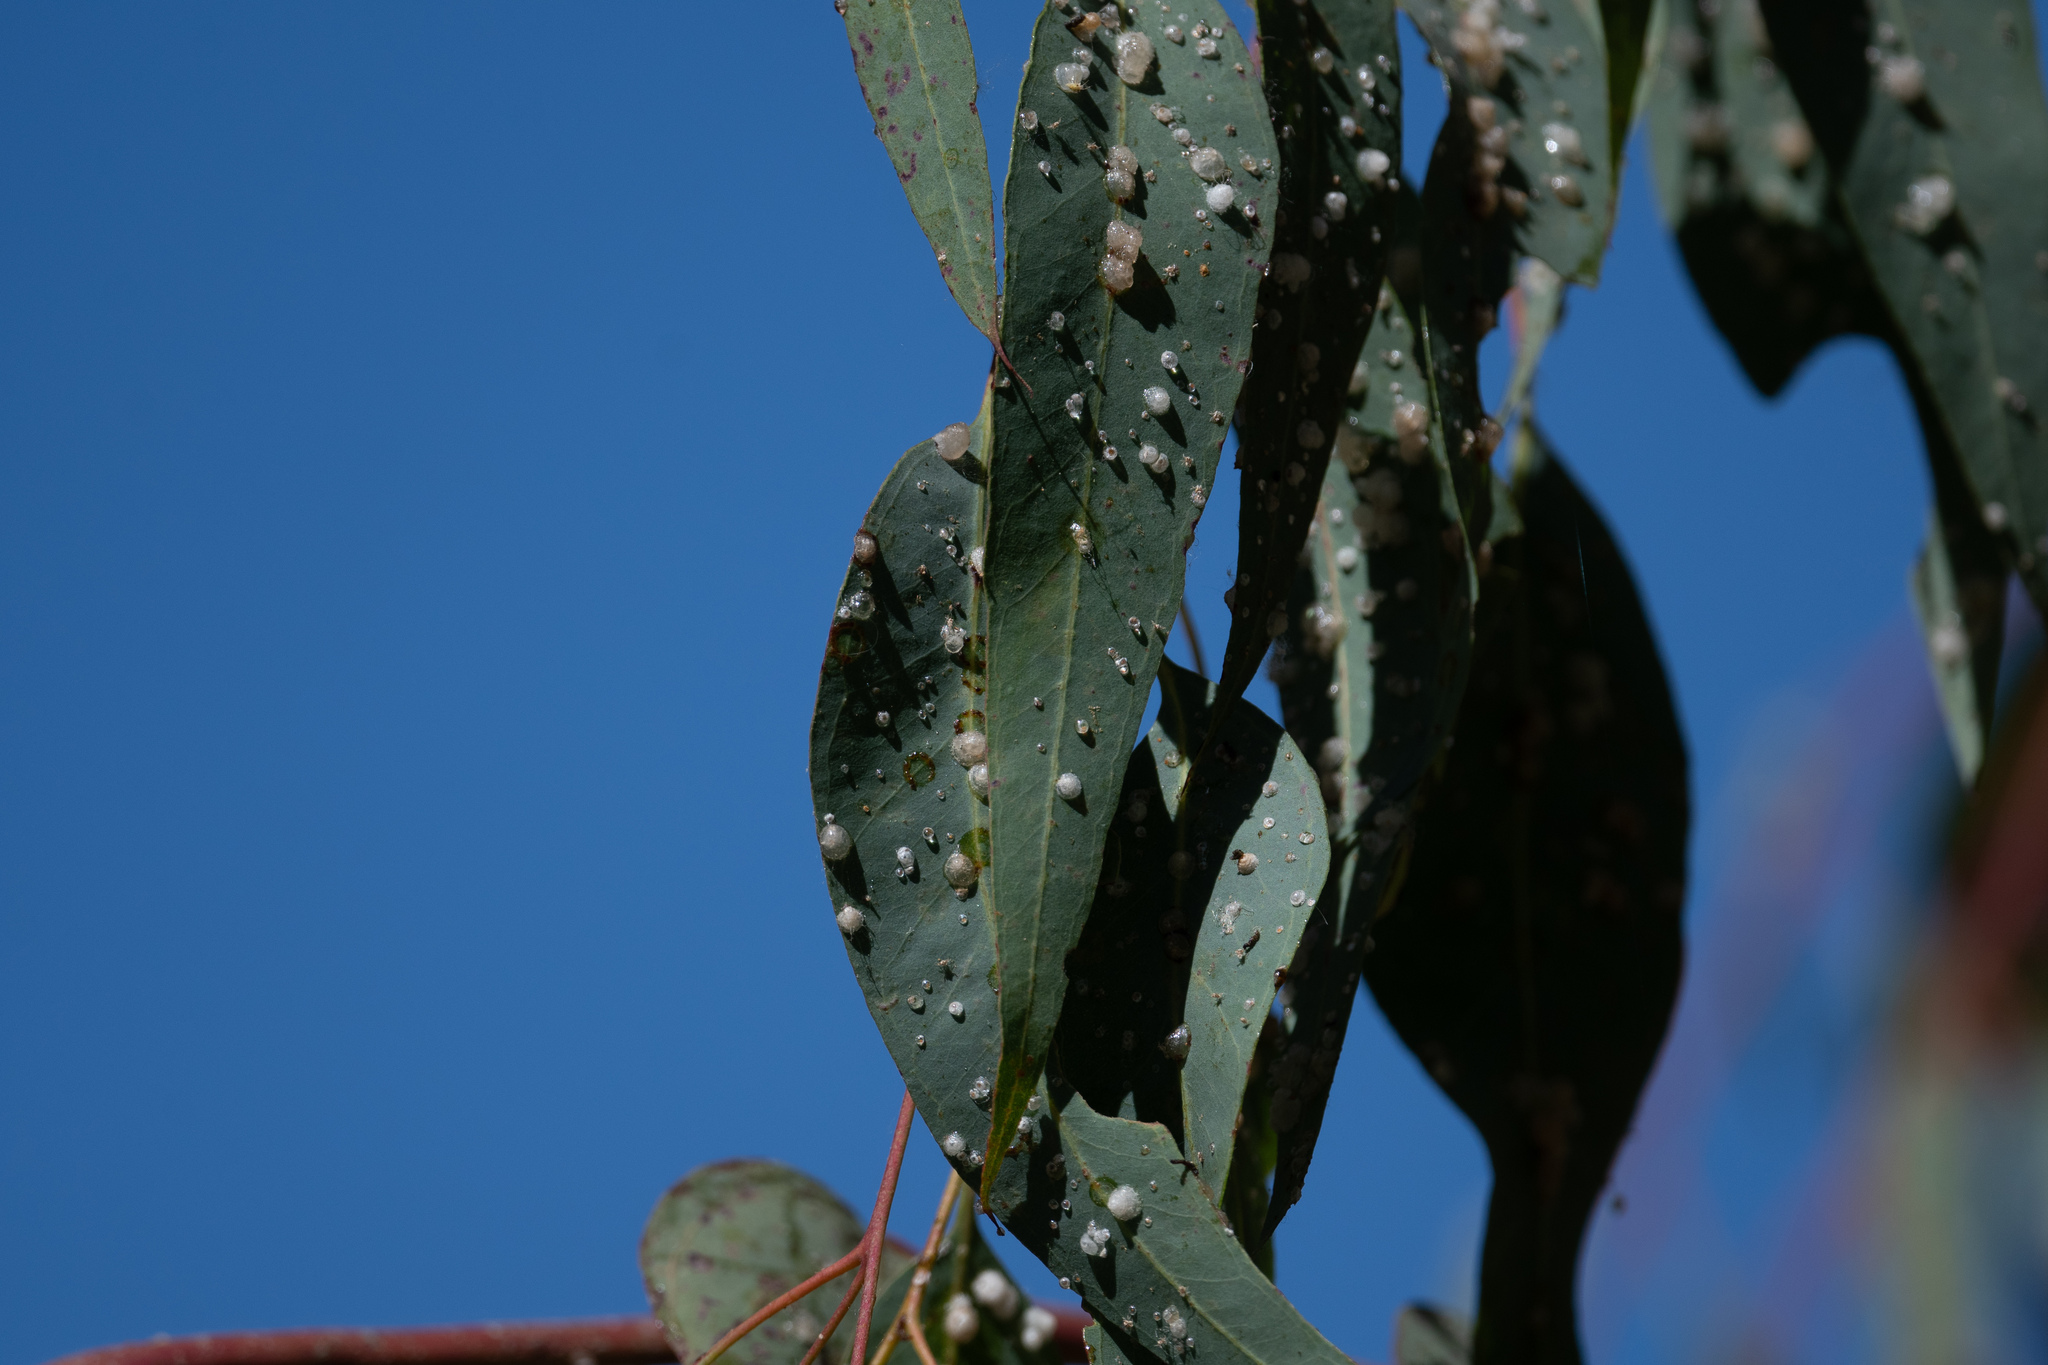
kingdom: Animalia
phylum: Arthropoda
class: Insecta
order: Hemiptera
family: Aphalaridae
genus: Glycaspis
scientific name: Glycaspis brimblecombei
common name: Red gum lerp psyllid
